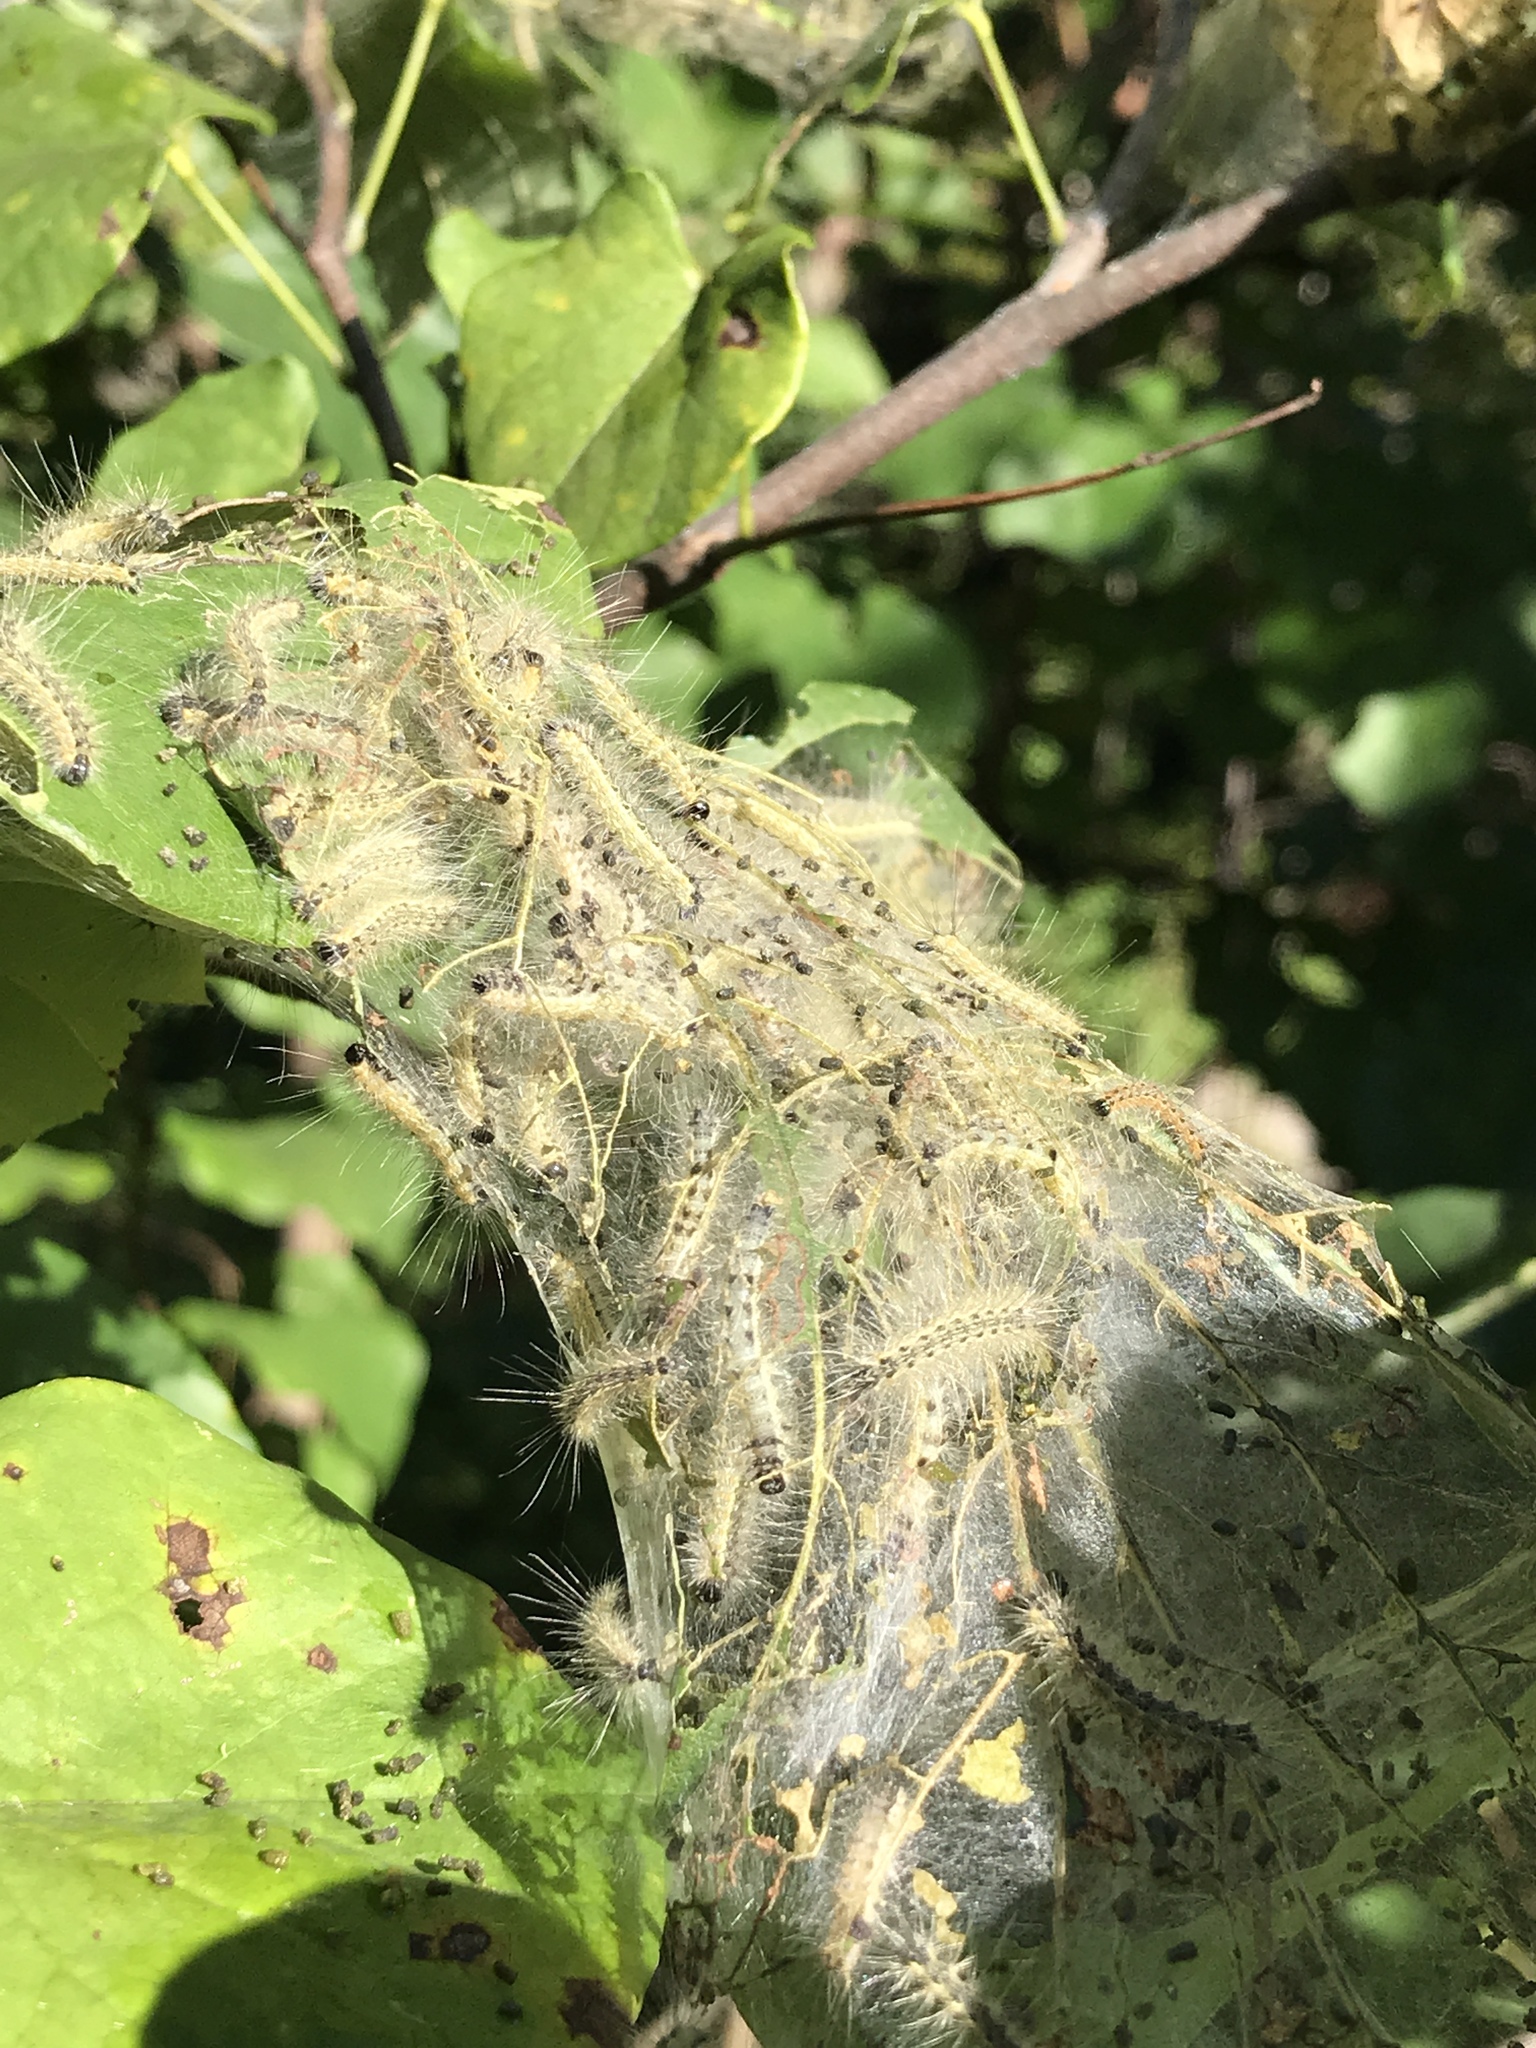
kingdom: Animalia
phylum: Arthropoda
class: Insecta
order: Lepidoptera
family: Erebidae
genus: Hyphantria
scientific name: Hyphantria cunea
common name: American white moth
